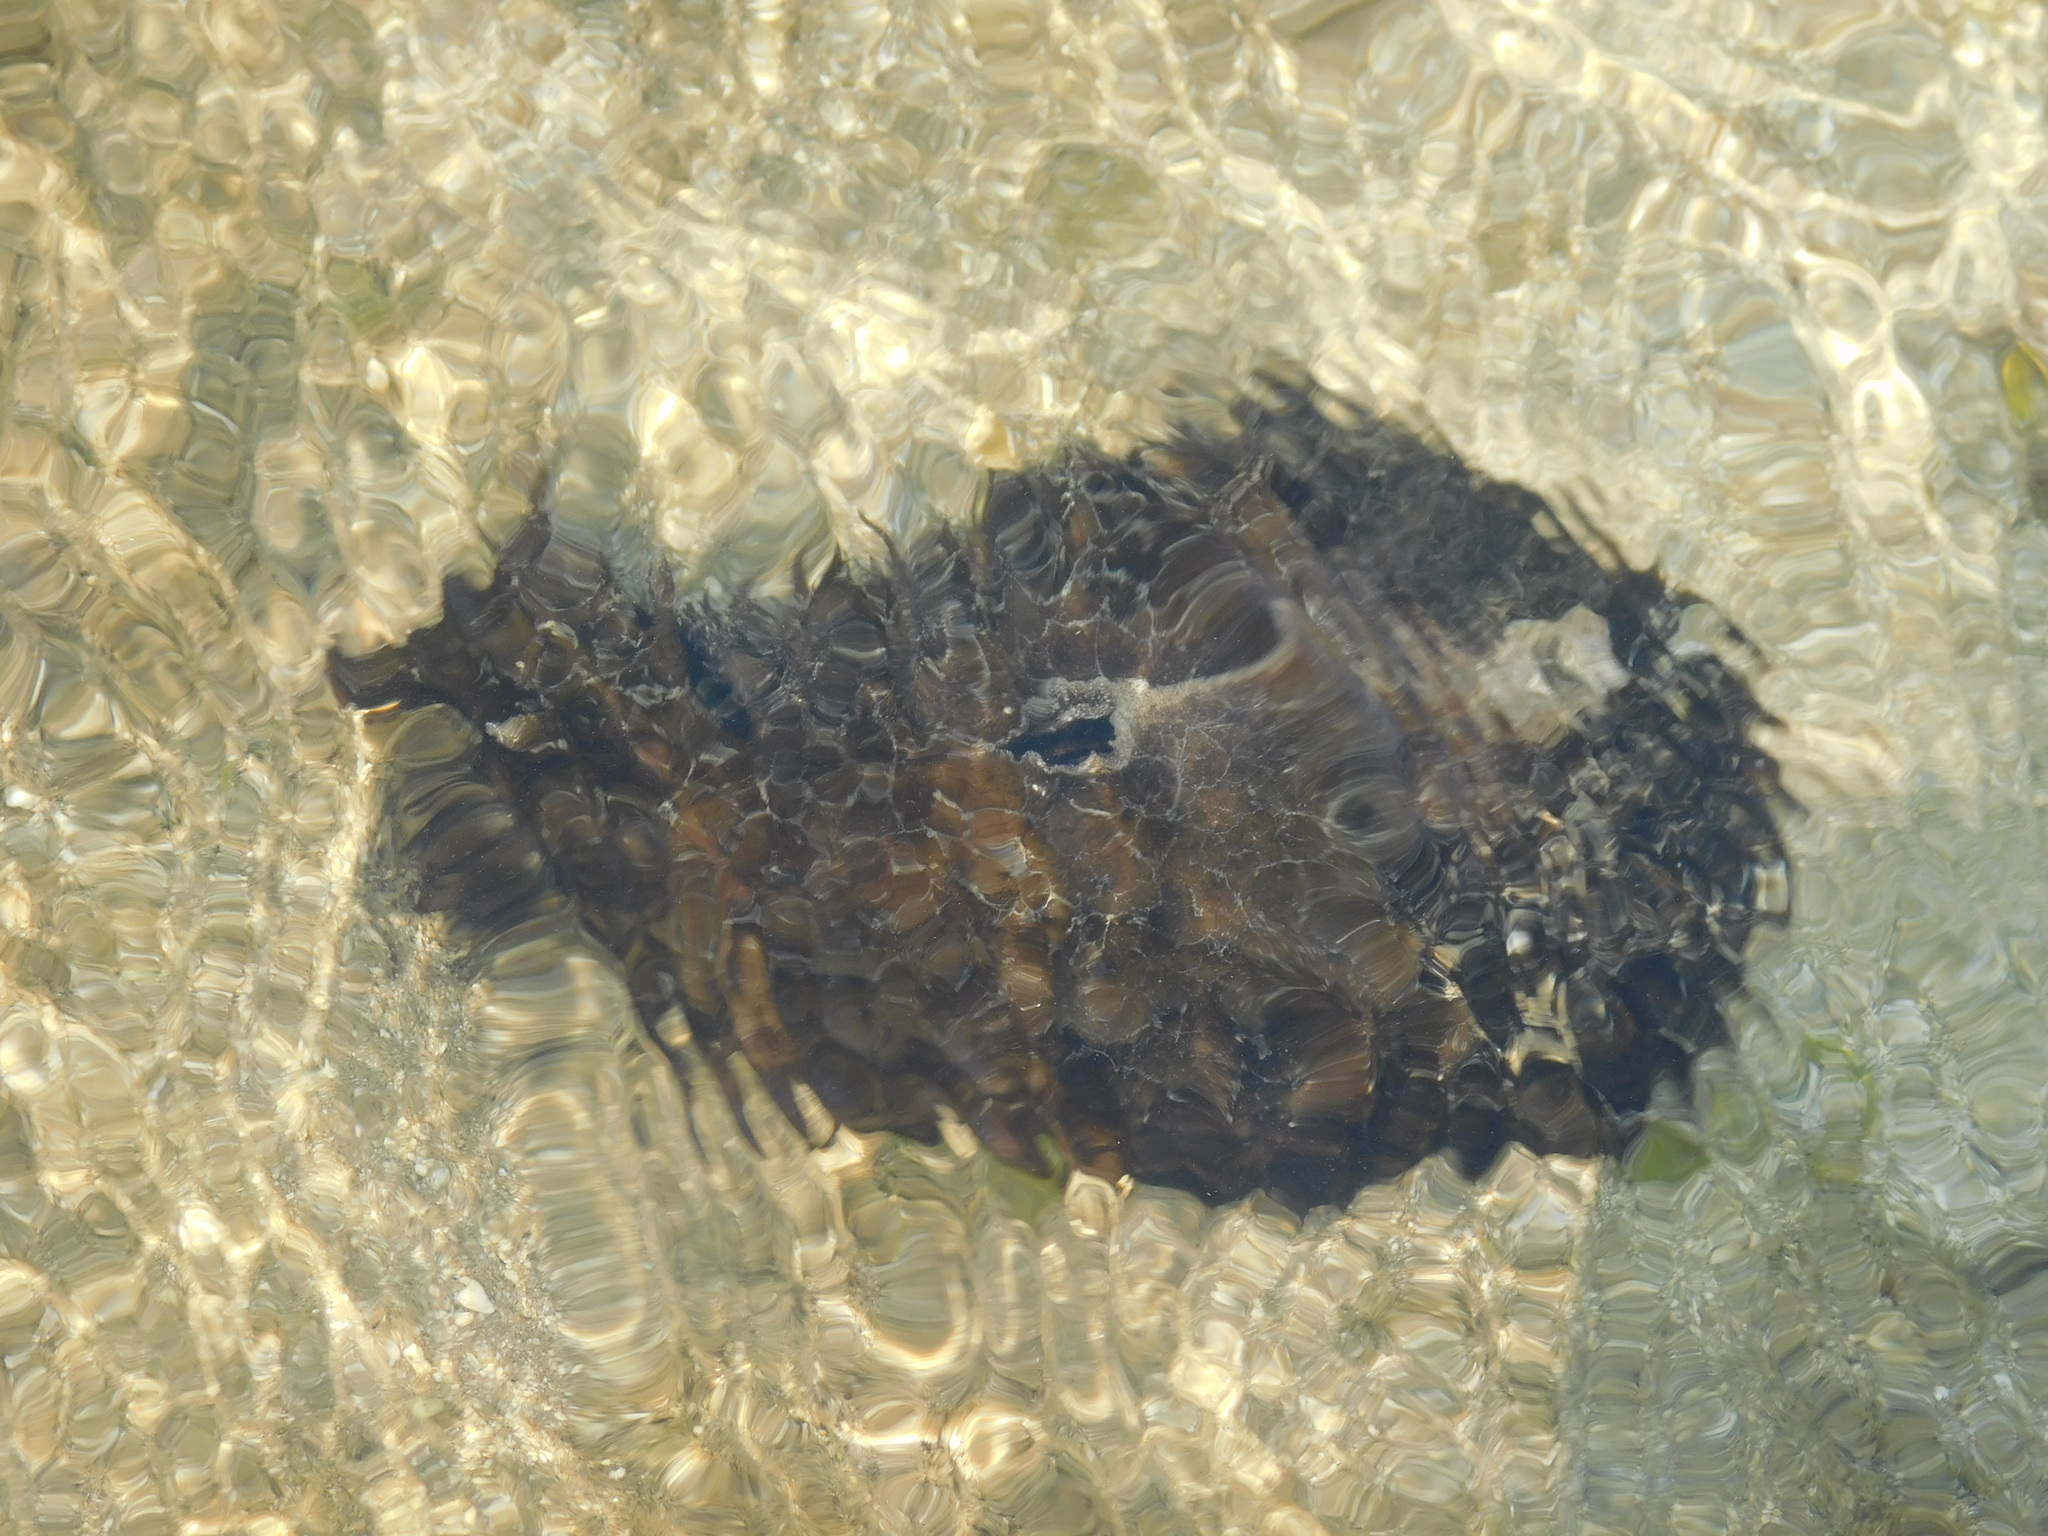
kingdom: Animalia
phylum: Mollusca
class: Gastropoda
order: Aplysiida
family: Aplysiidae
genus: Dolabella
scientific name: Dolabella auricularia
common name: Blunt-end seahare
